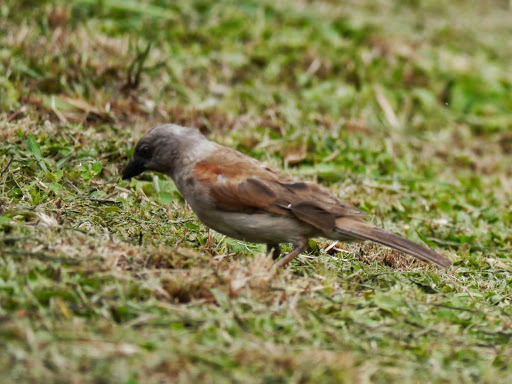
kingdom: Animalia
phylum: Chordata
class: Aves
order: Passeriformes
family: Passeridae
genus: Passer
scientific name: Passer griseus
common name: Northern grey-headed sparrow
